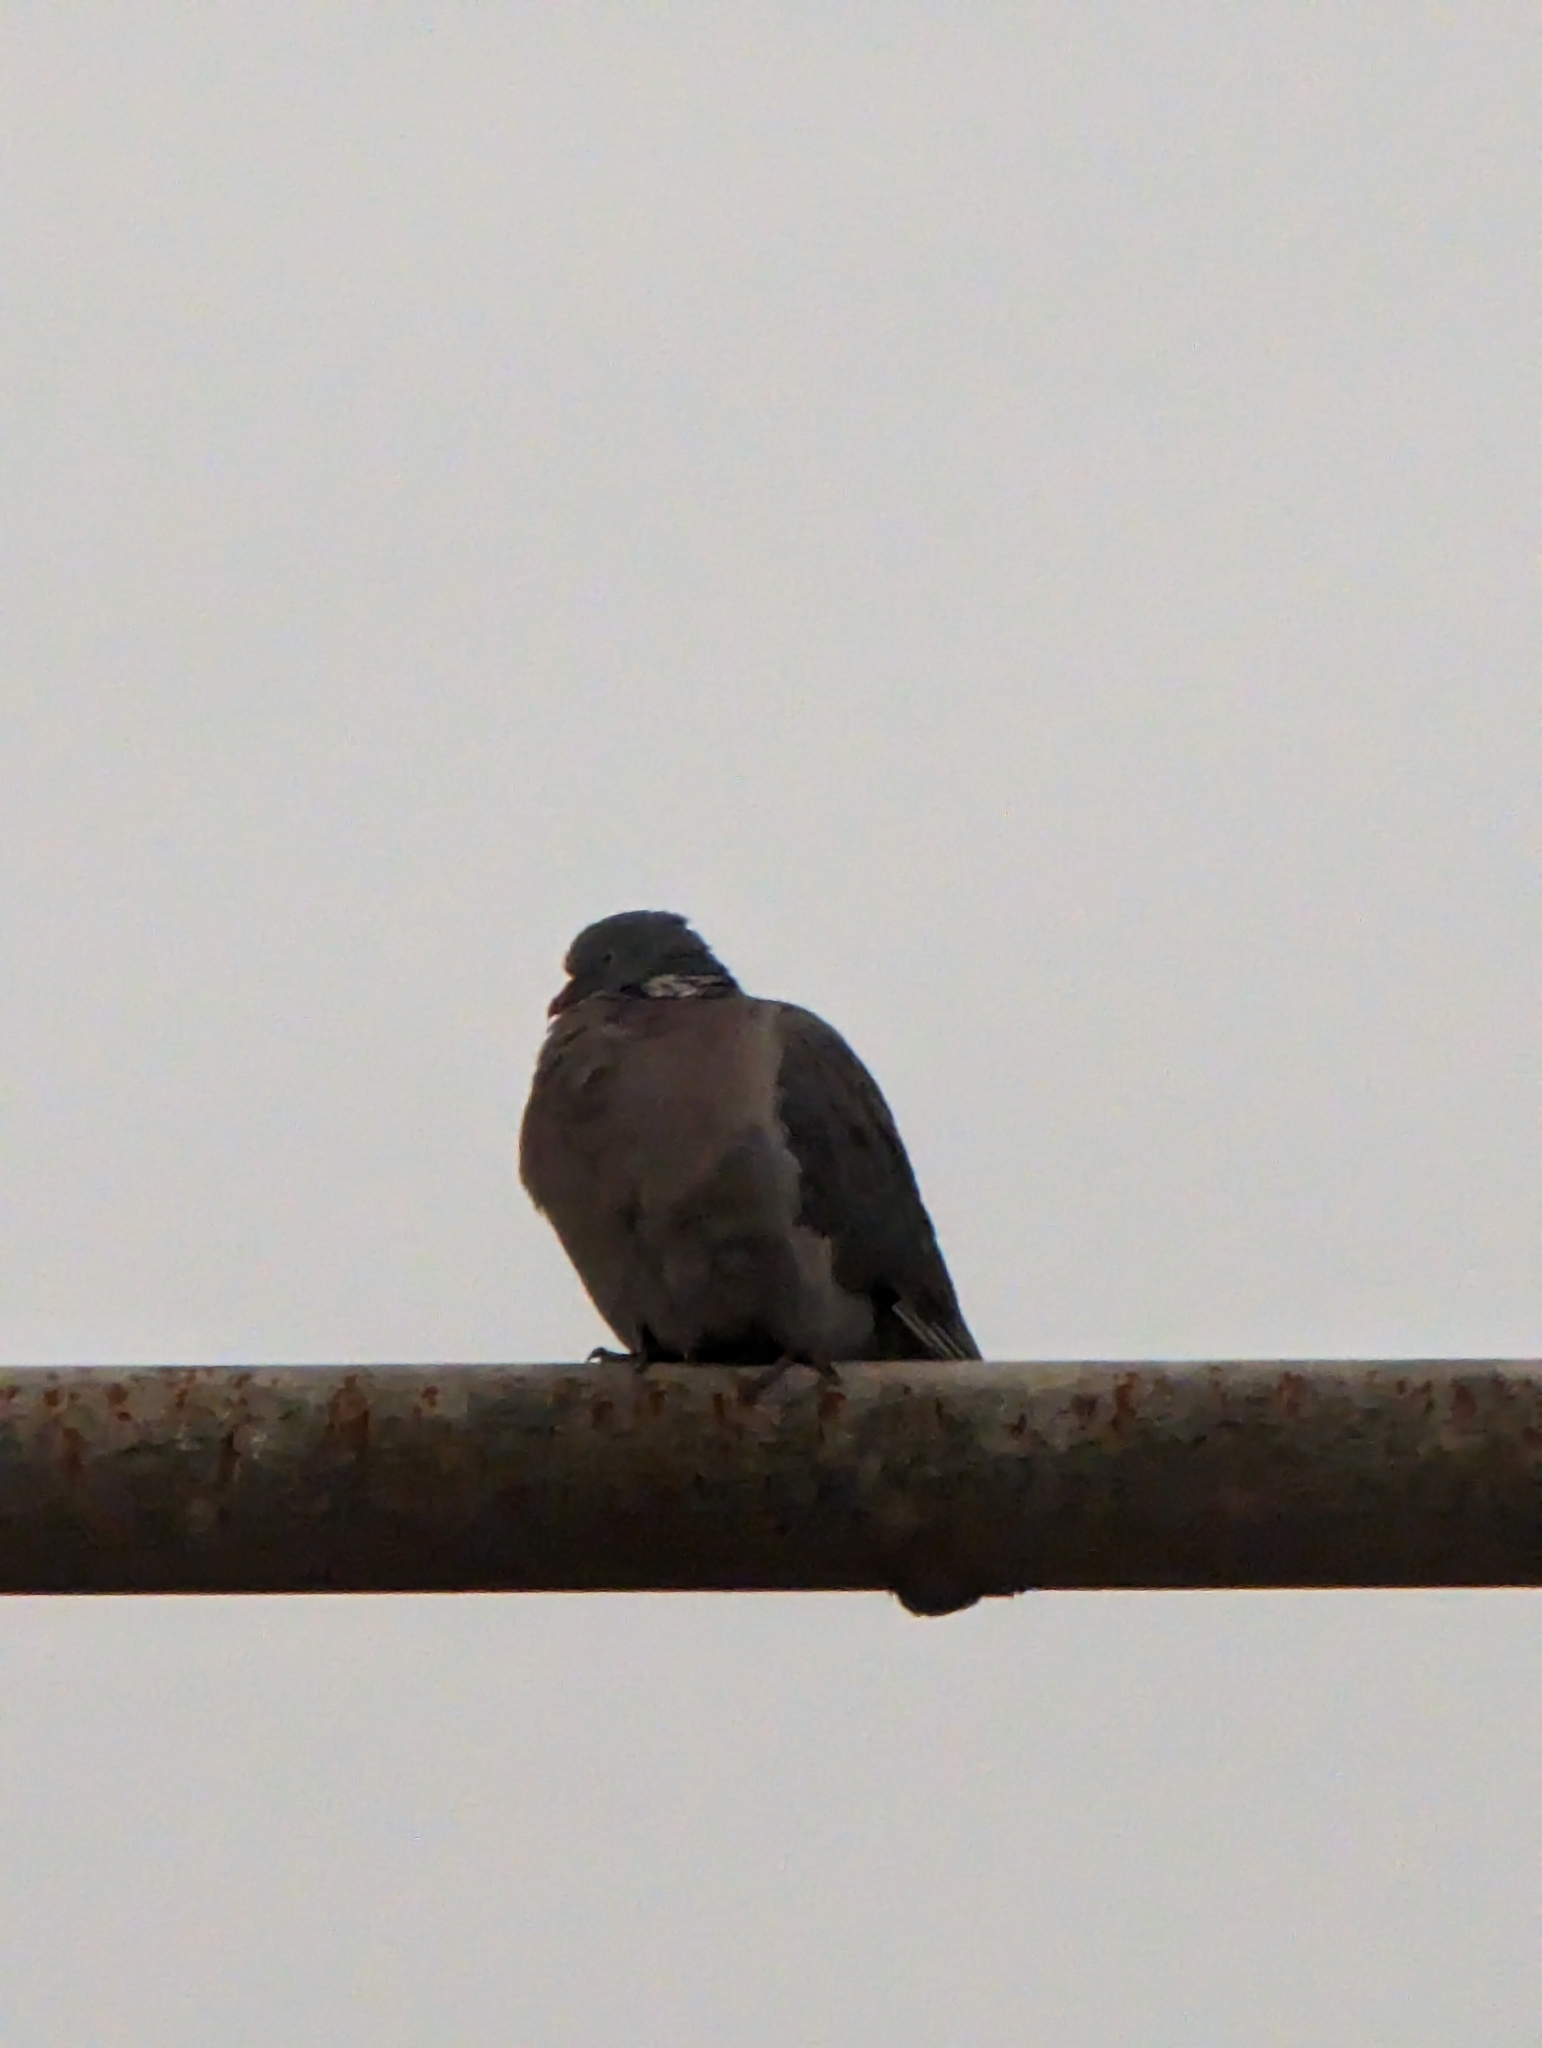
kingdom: Animalia
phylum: Chordata
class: Aves
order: Columbiformes
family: Columbidae
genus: Columba
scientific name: Columba palumbus
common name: Common wood pigeon
